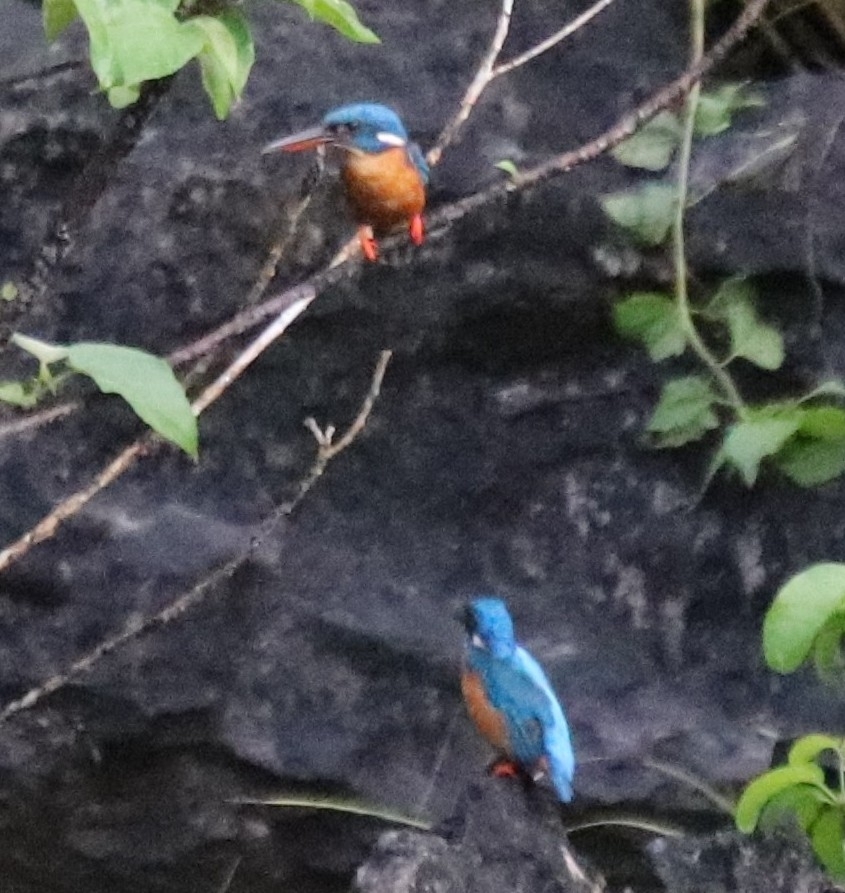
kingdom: Animalia
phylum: Chordata
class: Aves
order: Coraciiformes
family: Alcedinidae
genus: Alcedo
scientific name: Alcedo meninting
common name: Blue-eared kingfisher
